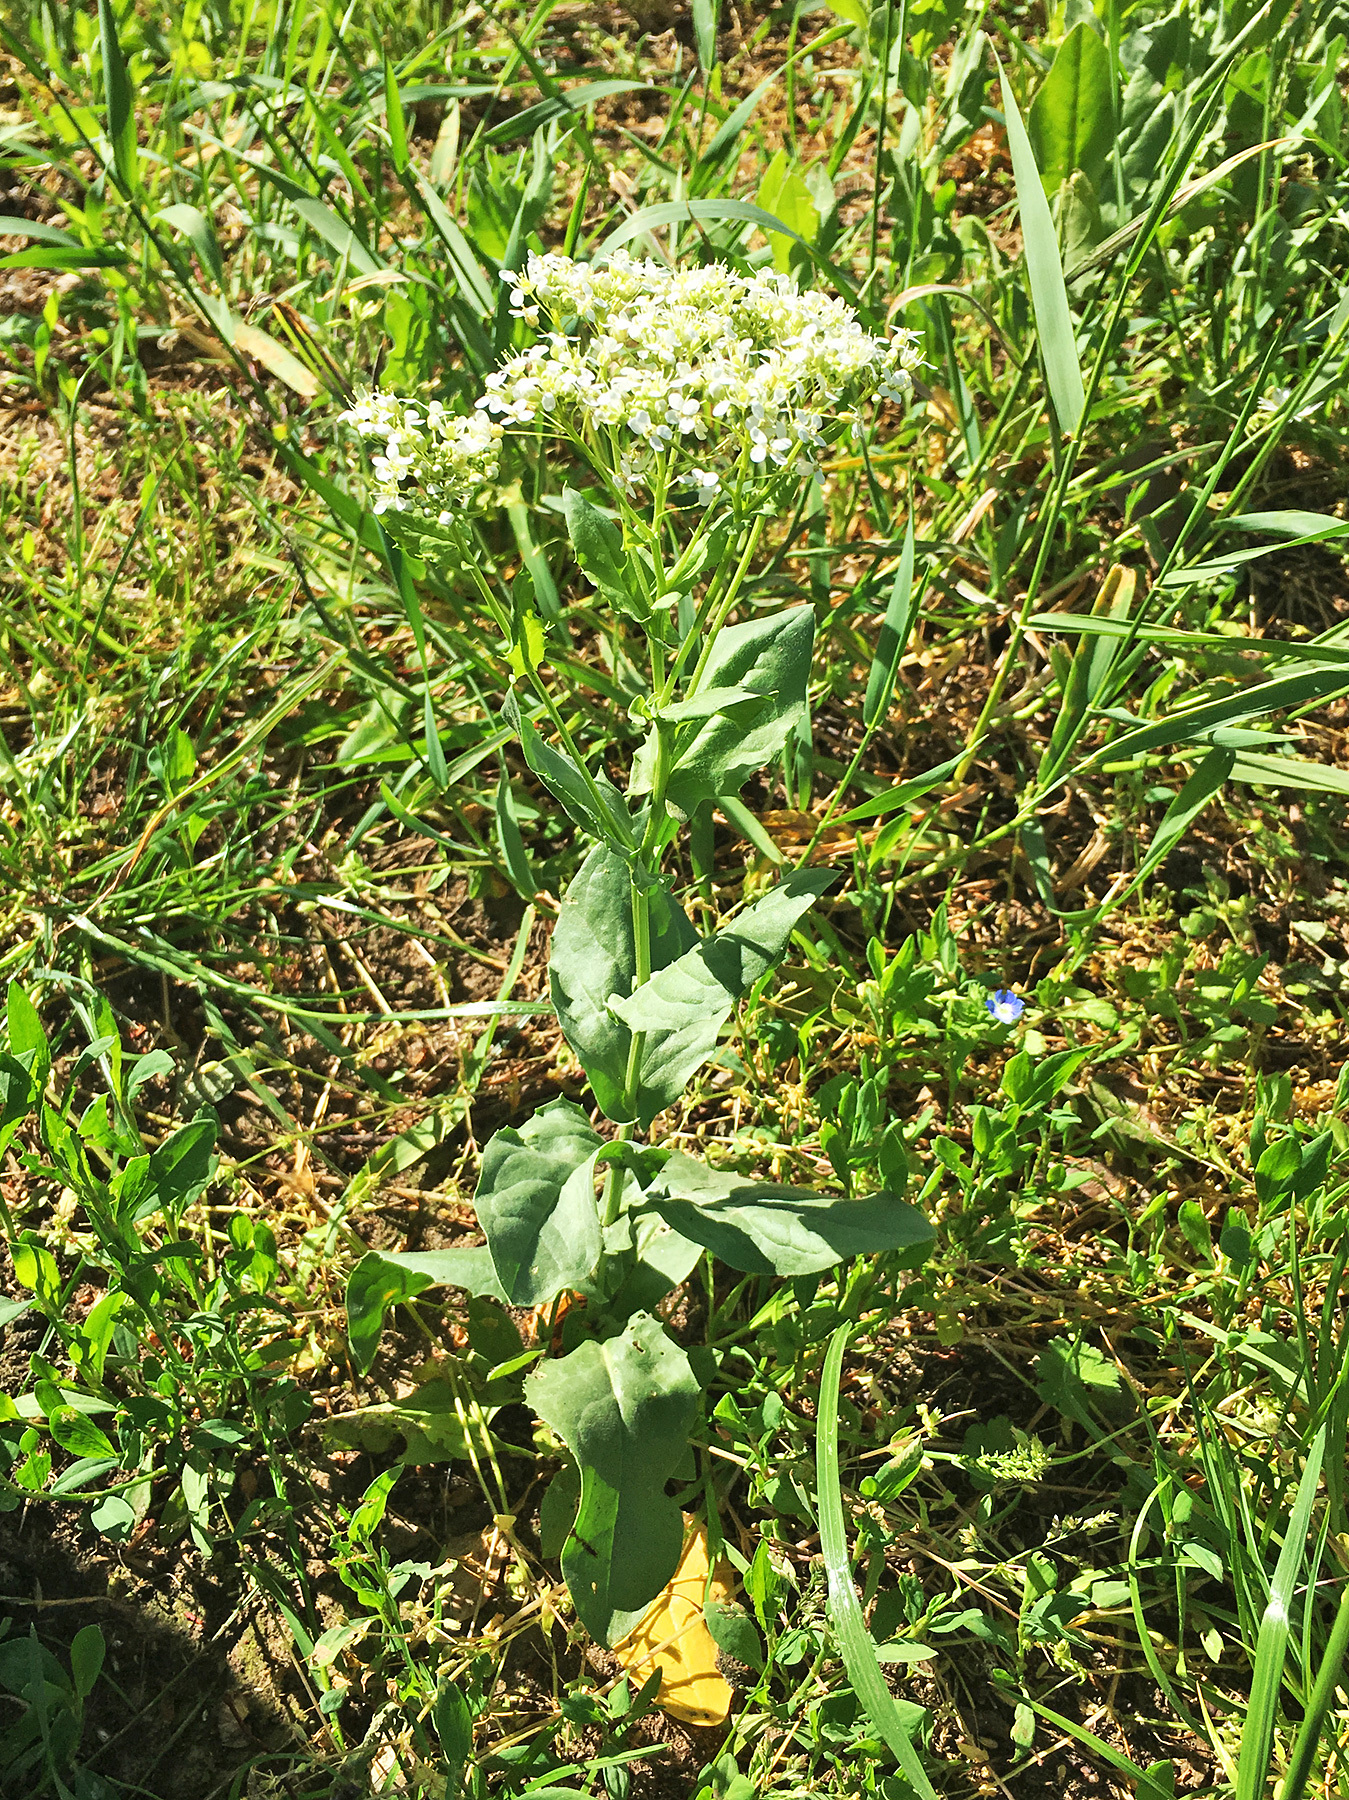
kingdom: Plantae
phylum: Tracheophyta
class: Magnoliopsida
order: Brassicales
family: Brassicaceae
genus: Lepidium
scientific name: Lepidium draba
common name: Hoary cress
